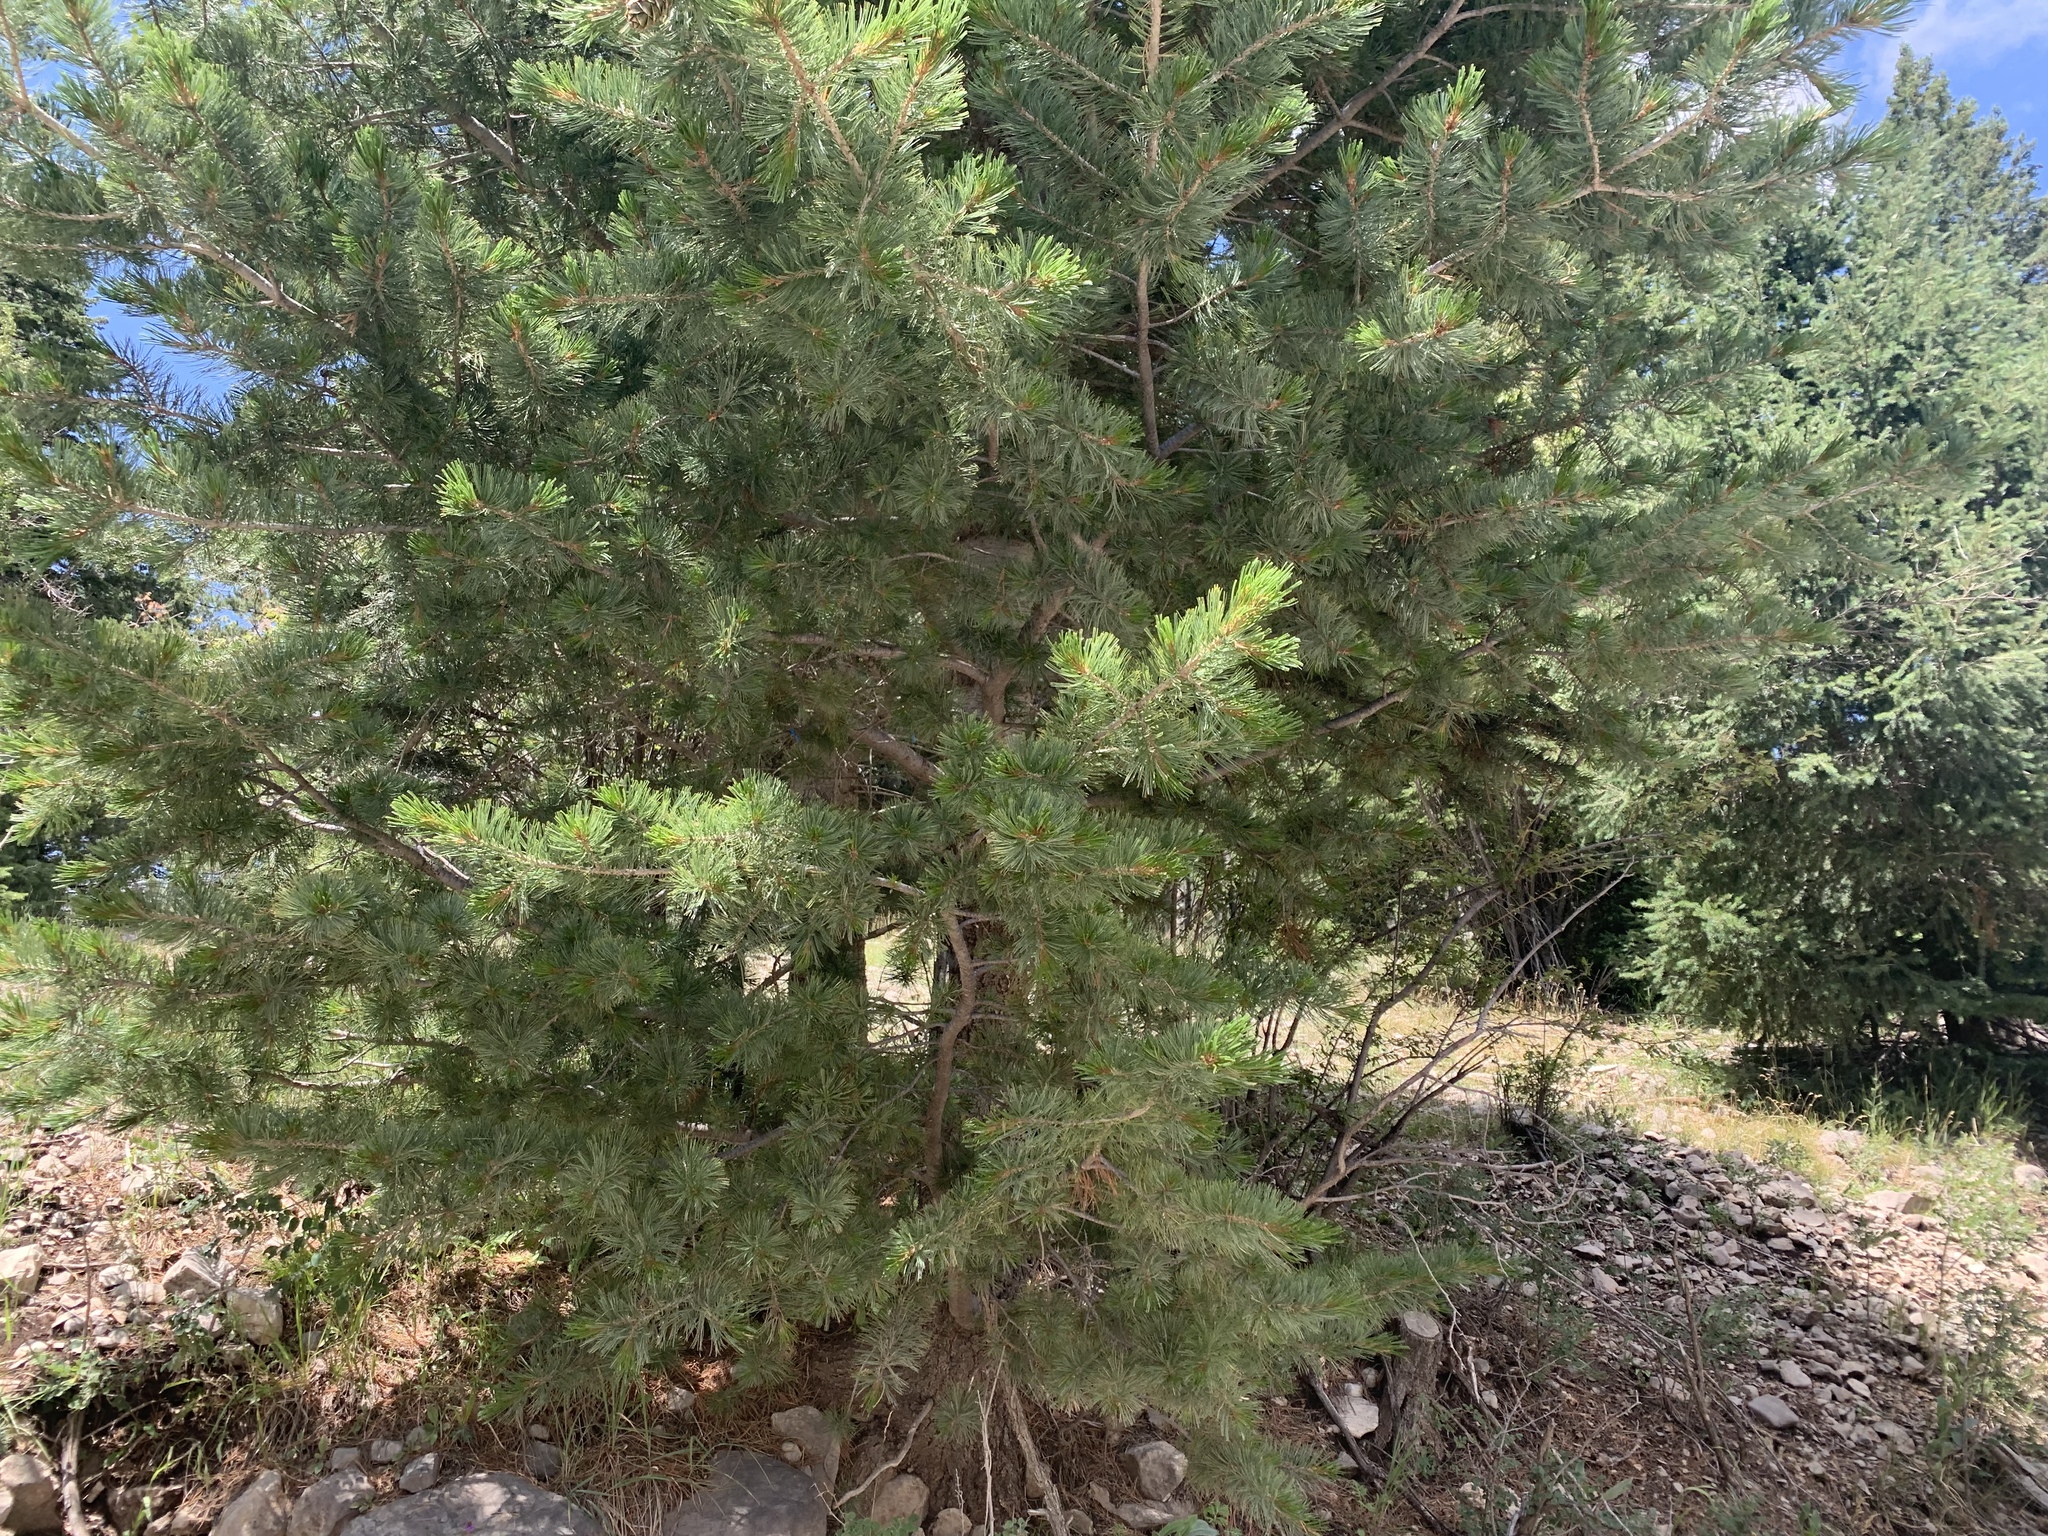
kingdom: Plantae
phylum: Tracheophyta
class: Pinopsida
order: Pinales
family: Pinaceae
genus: Pinus
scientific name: Pinus strobiformis
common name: Southwestern white pine
